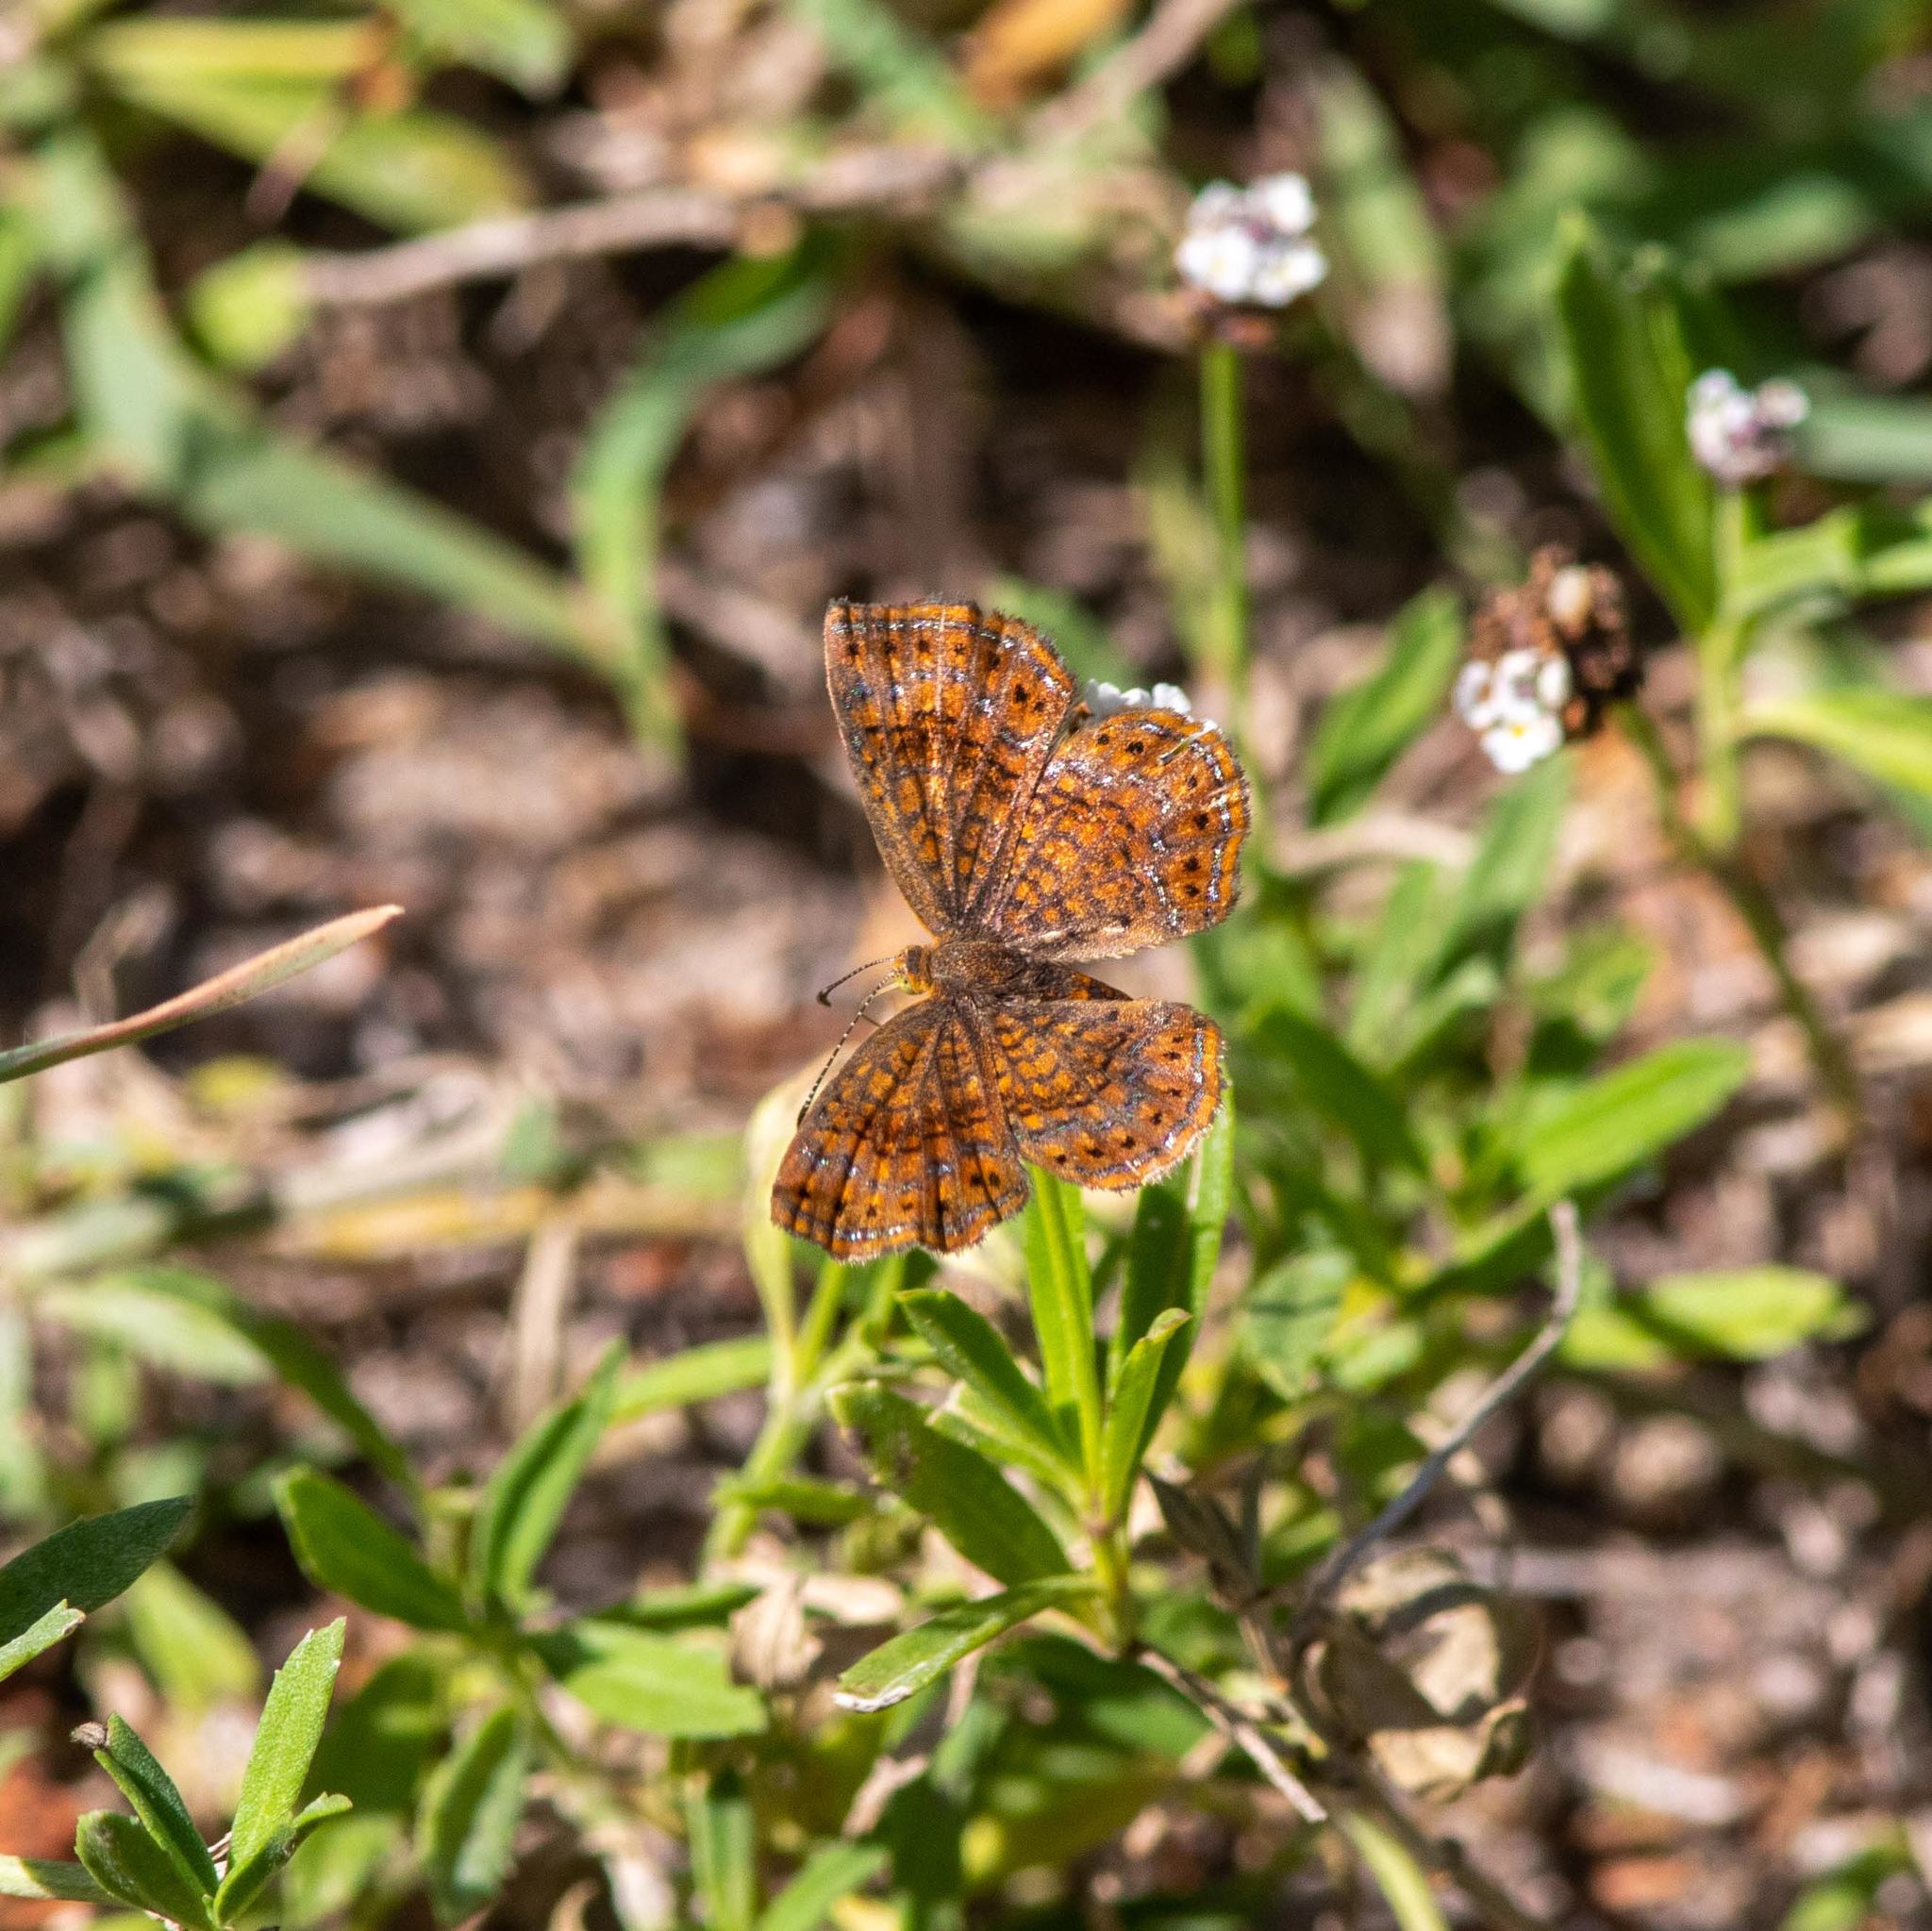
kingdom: Animalia
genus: Calephelis
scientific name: Calephelis perditalis
